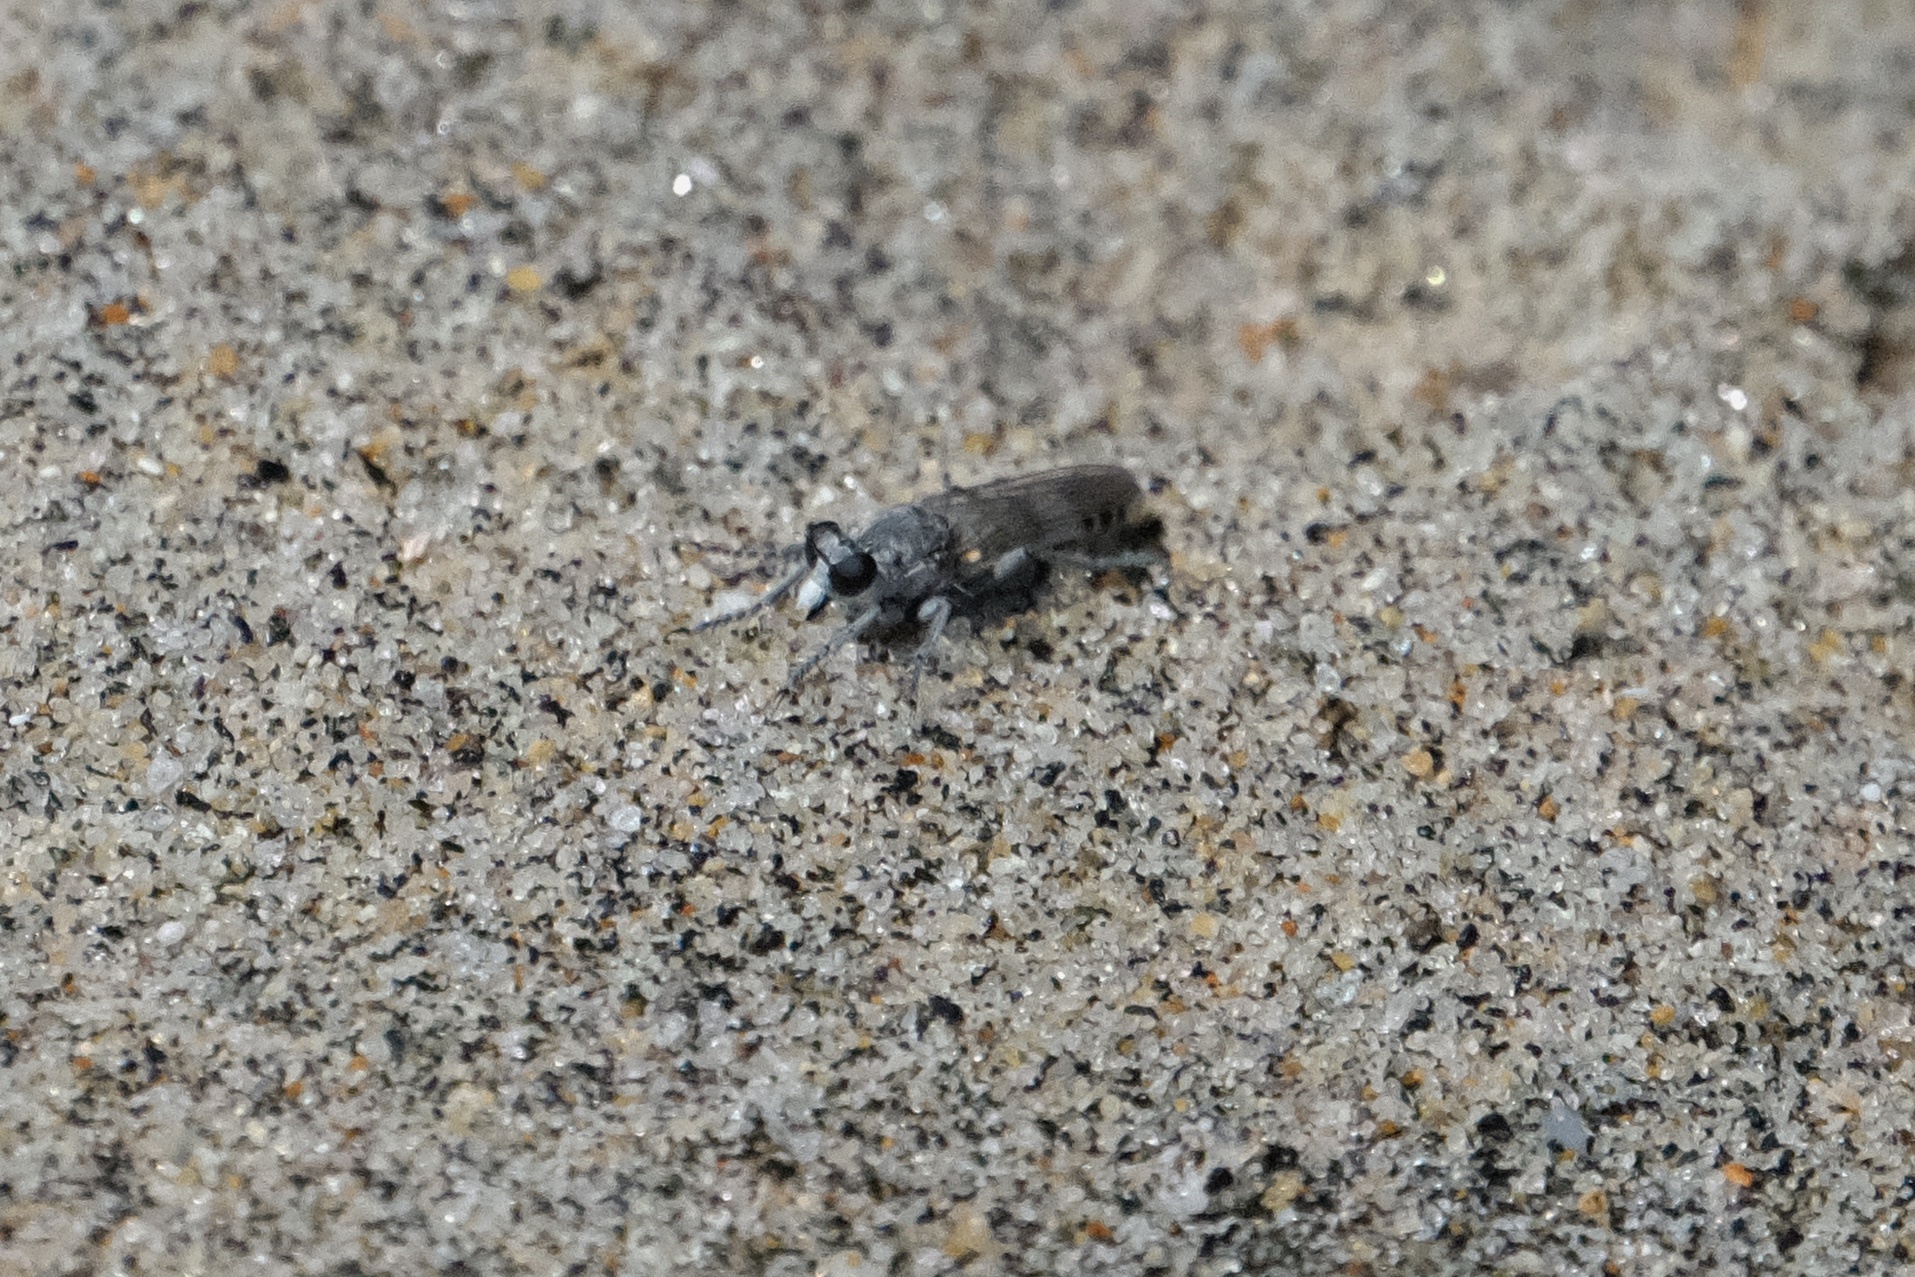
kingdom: Animalia
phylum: Arthropoda
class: Insecta
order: Diptera
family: Asilidae
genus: Stichopogon
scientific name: Stichopogon coquillettii
